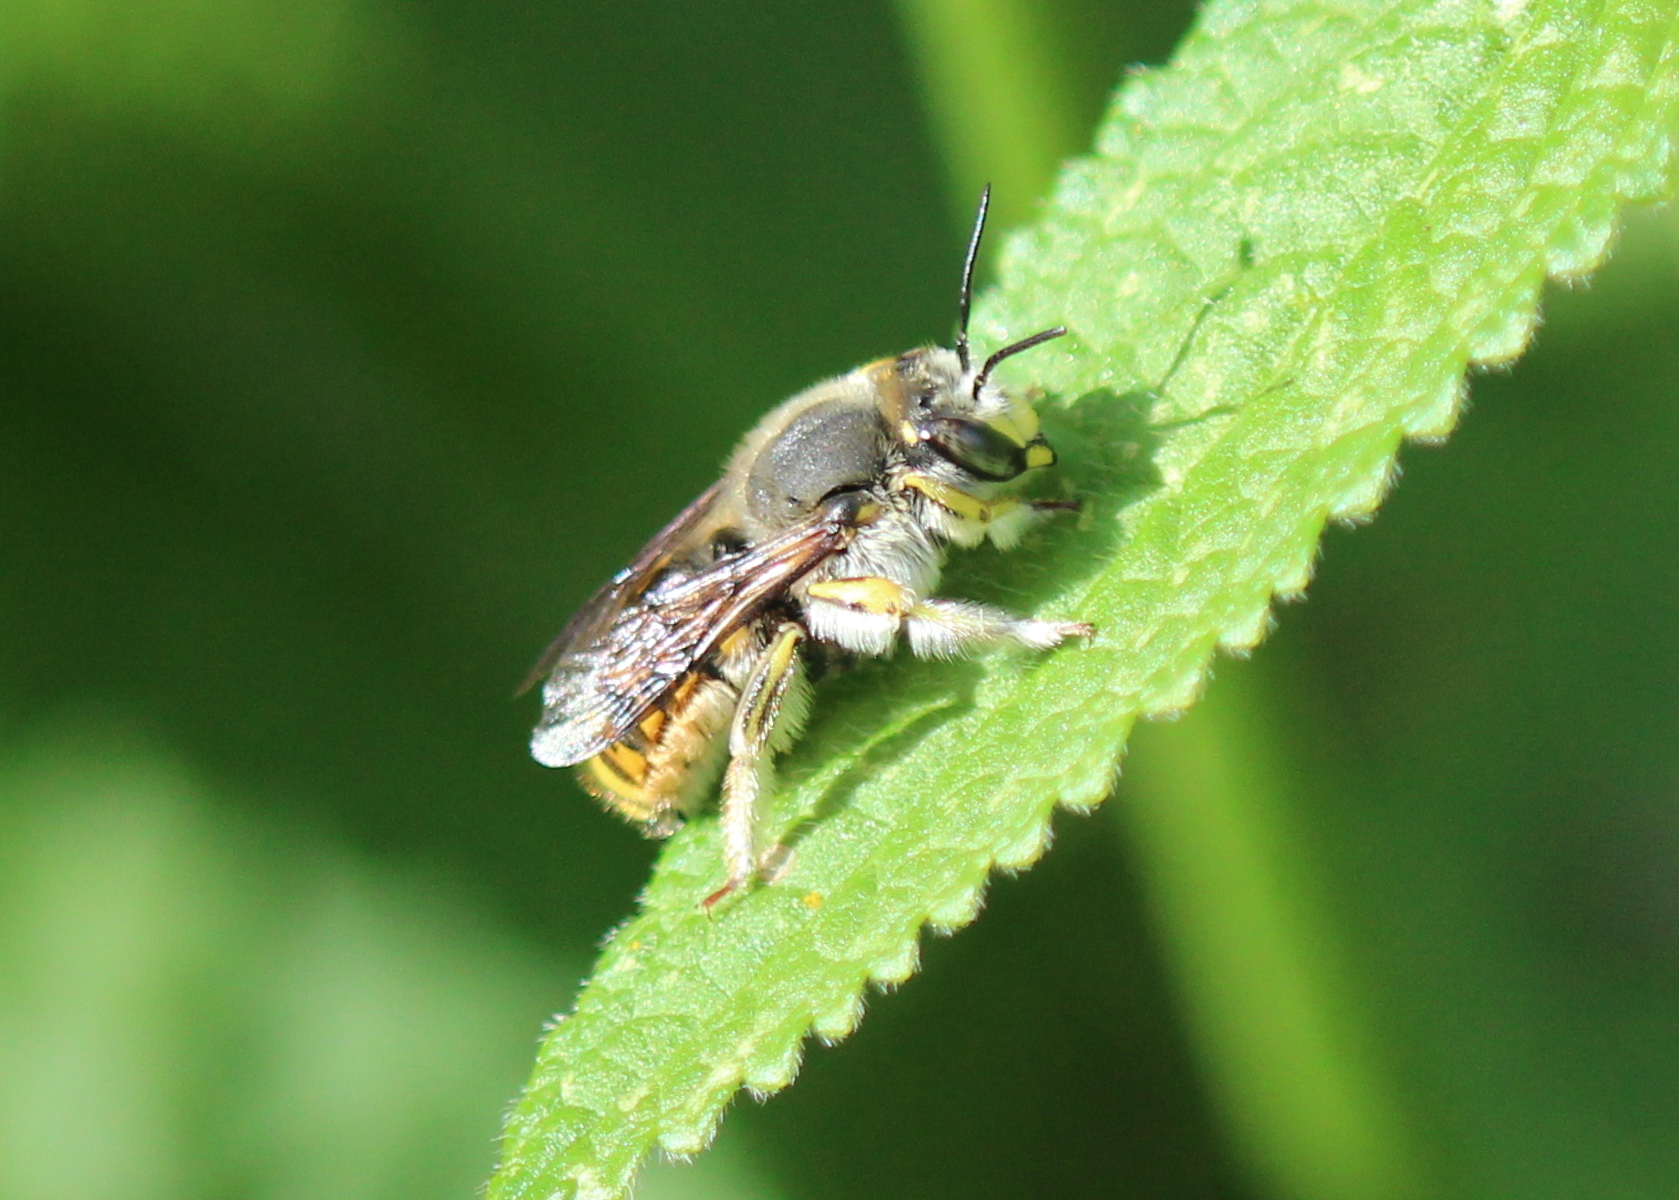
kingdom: Animalia
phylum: Arthropoda
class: Insecta
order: Hymenoptera
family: Megachilidae
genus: Anthidium
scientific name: Anthidium manicatum
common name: Wool carder bee
